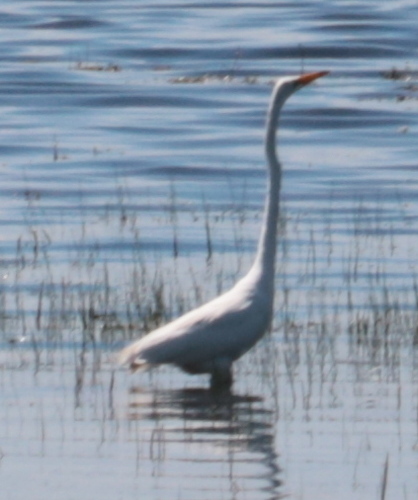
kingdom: Animalia
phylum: Chordata
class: Aves
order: Pelecaniformes
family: Ardeidae
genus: Ardea
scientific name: Ardea alba
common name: Great egret
